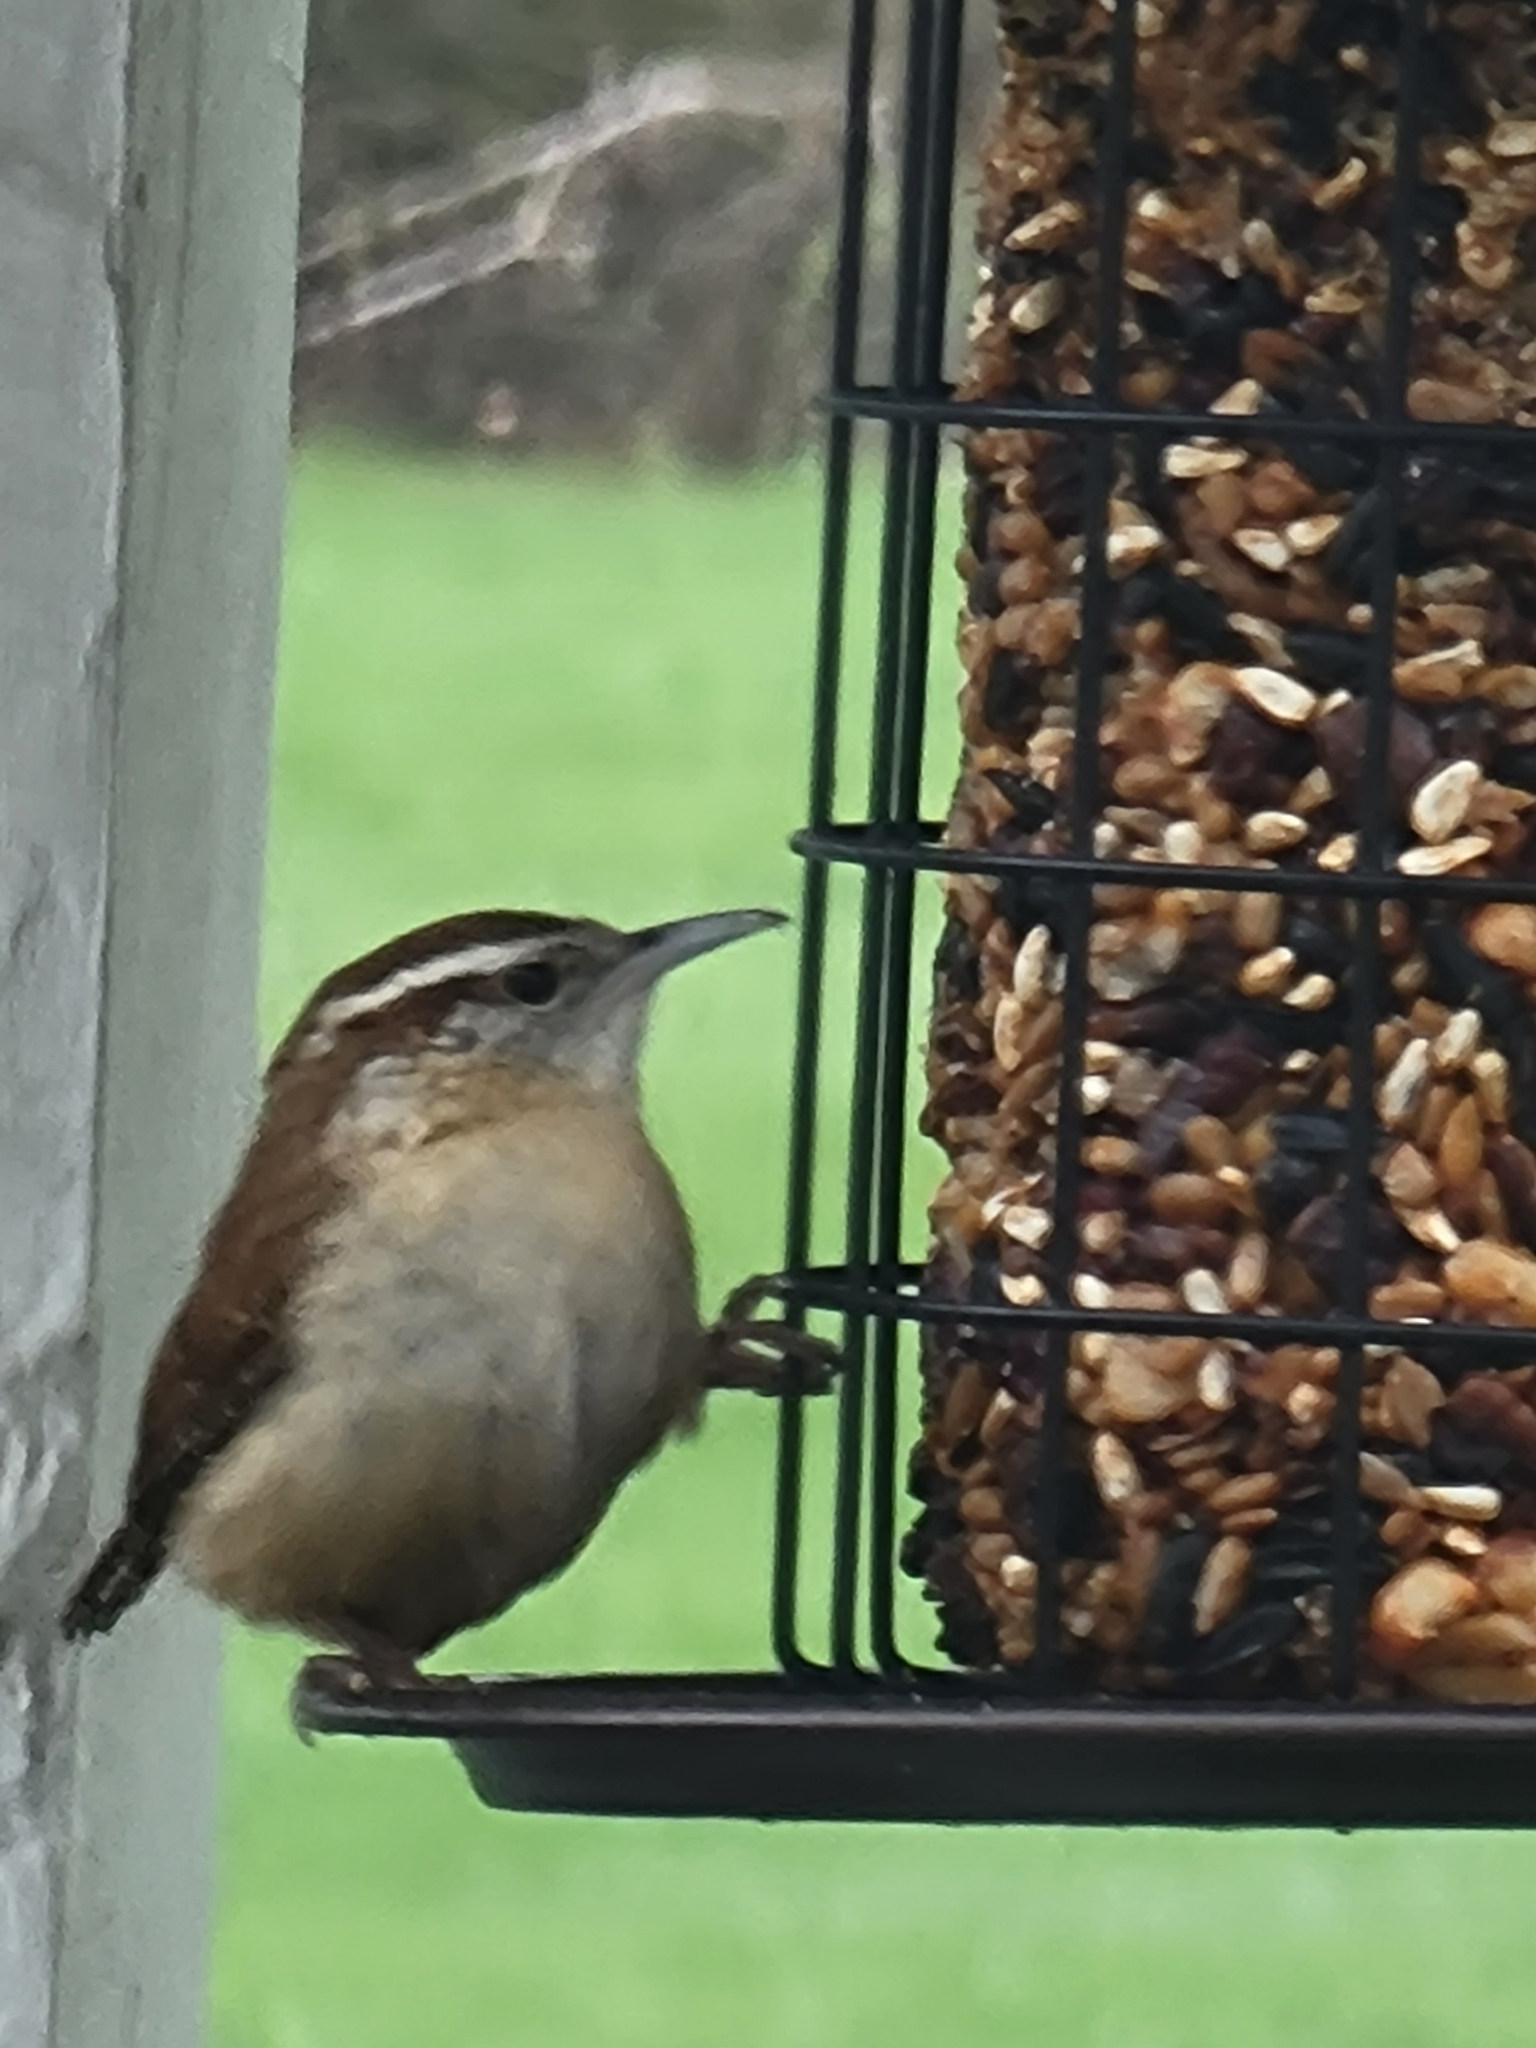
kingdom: Animalia
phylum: Chordata
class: Aves
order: Passeriformes
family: Troglodytidae
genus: Thryothorus
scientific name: Thryothorus ludovicianus
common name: Carolina wren
